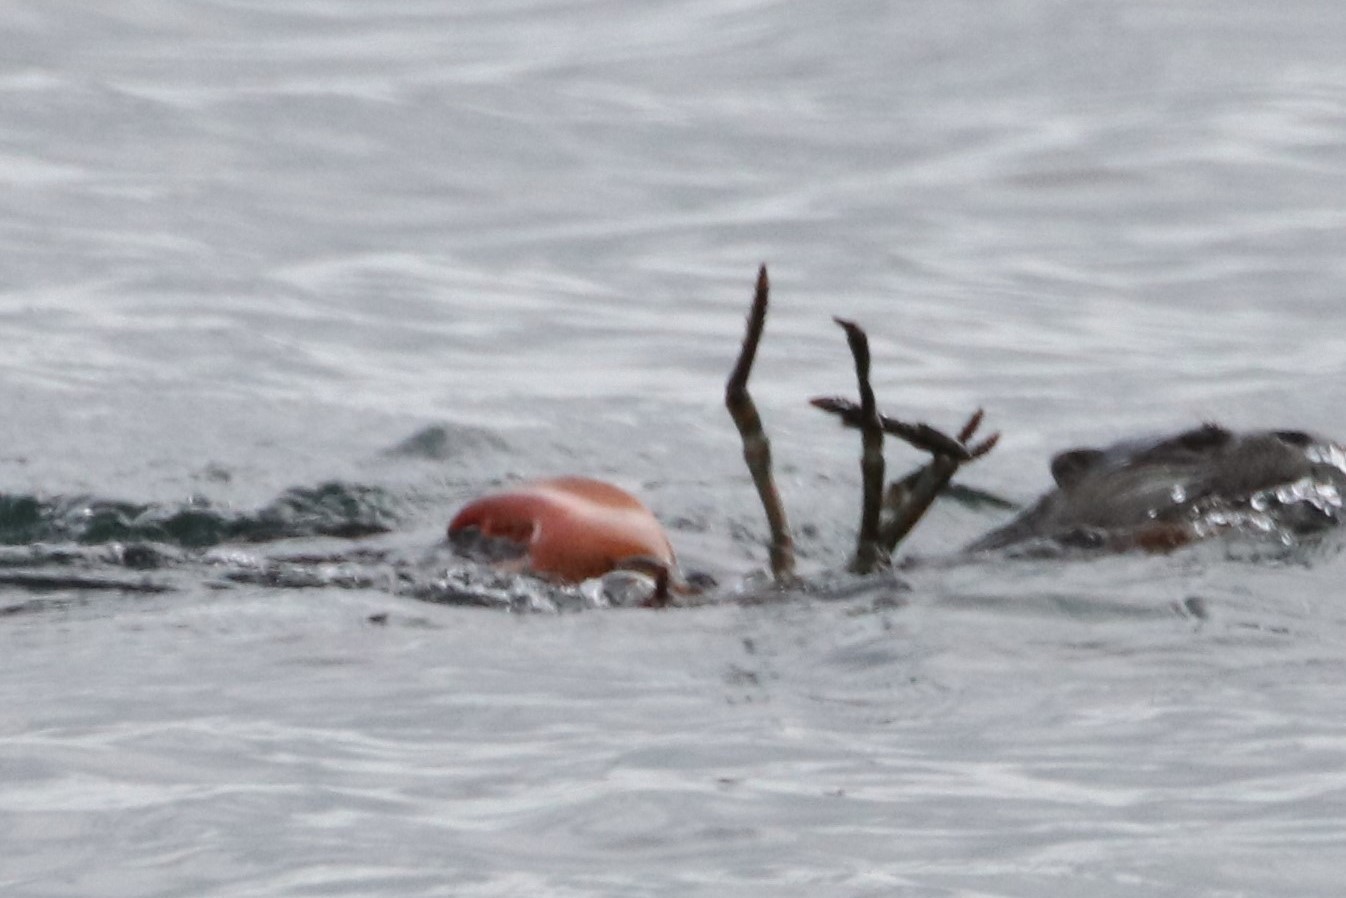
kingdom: Animalia
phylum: Arthropoda
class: Malacostraca
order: Decapoda
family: Nephropidae
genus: Homarus
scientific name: Homarus americanus
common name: American lobster
